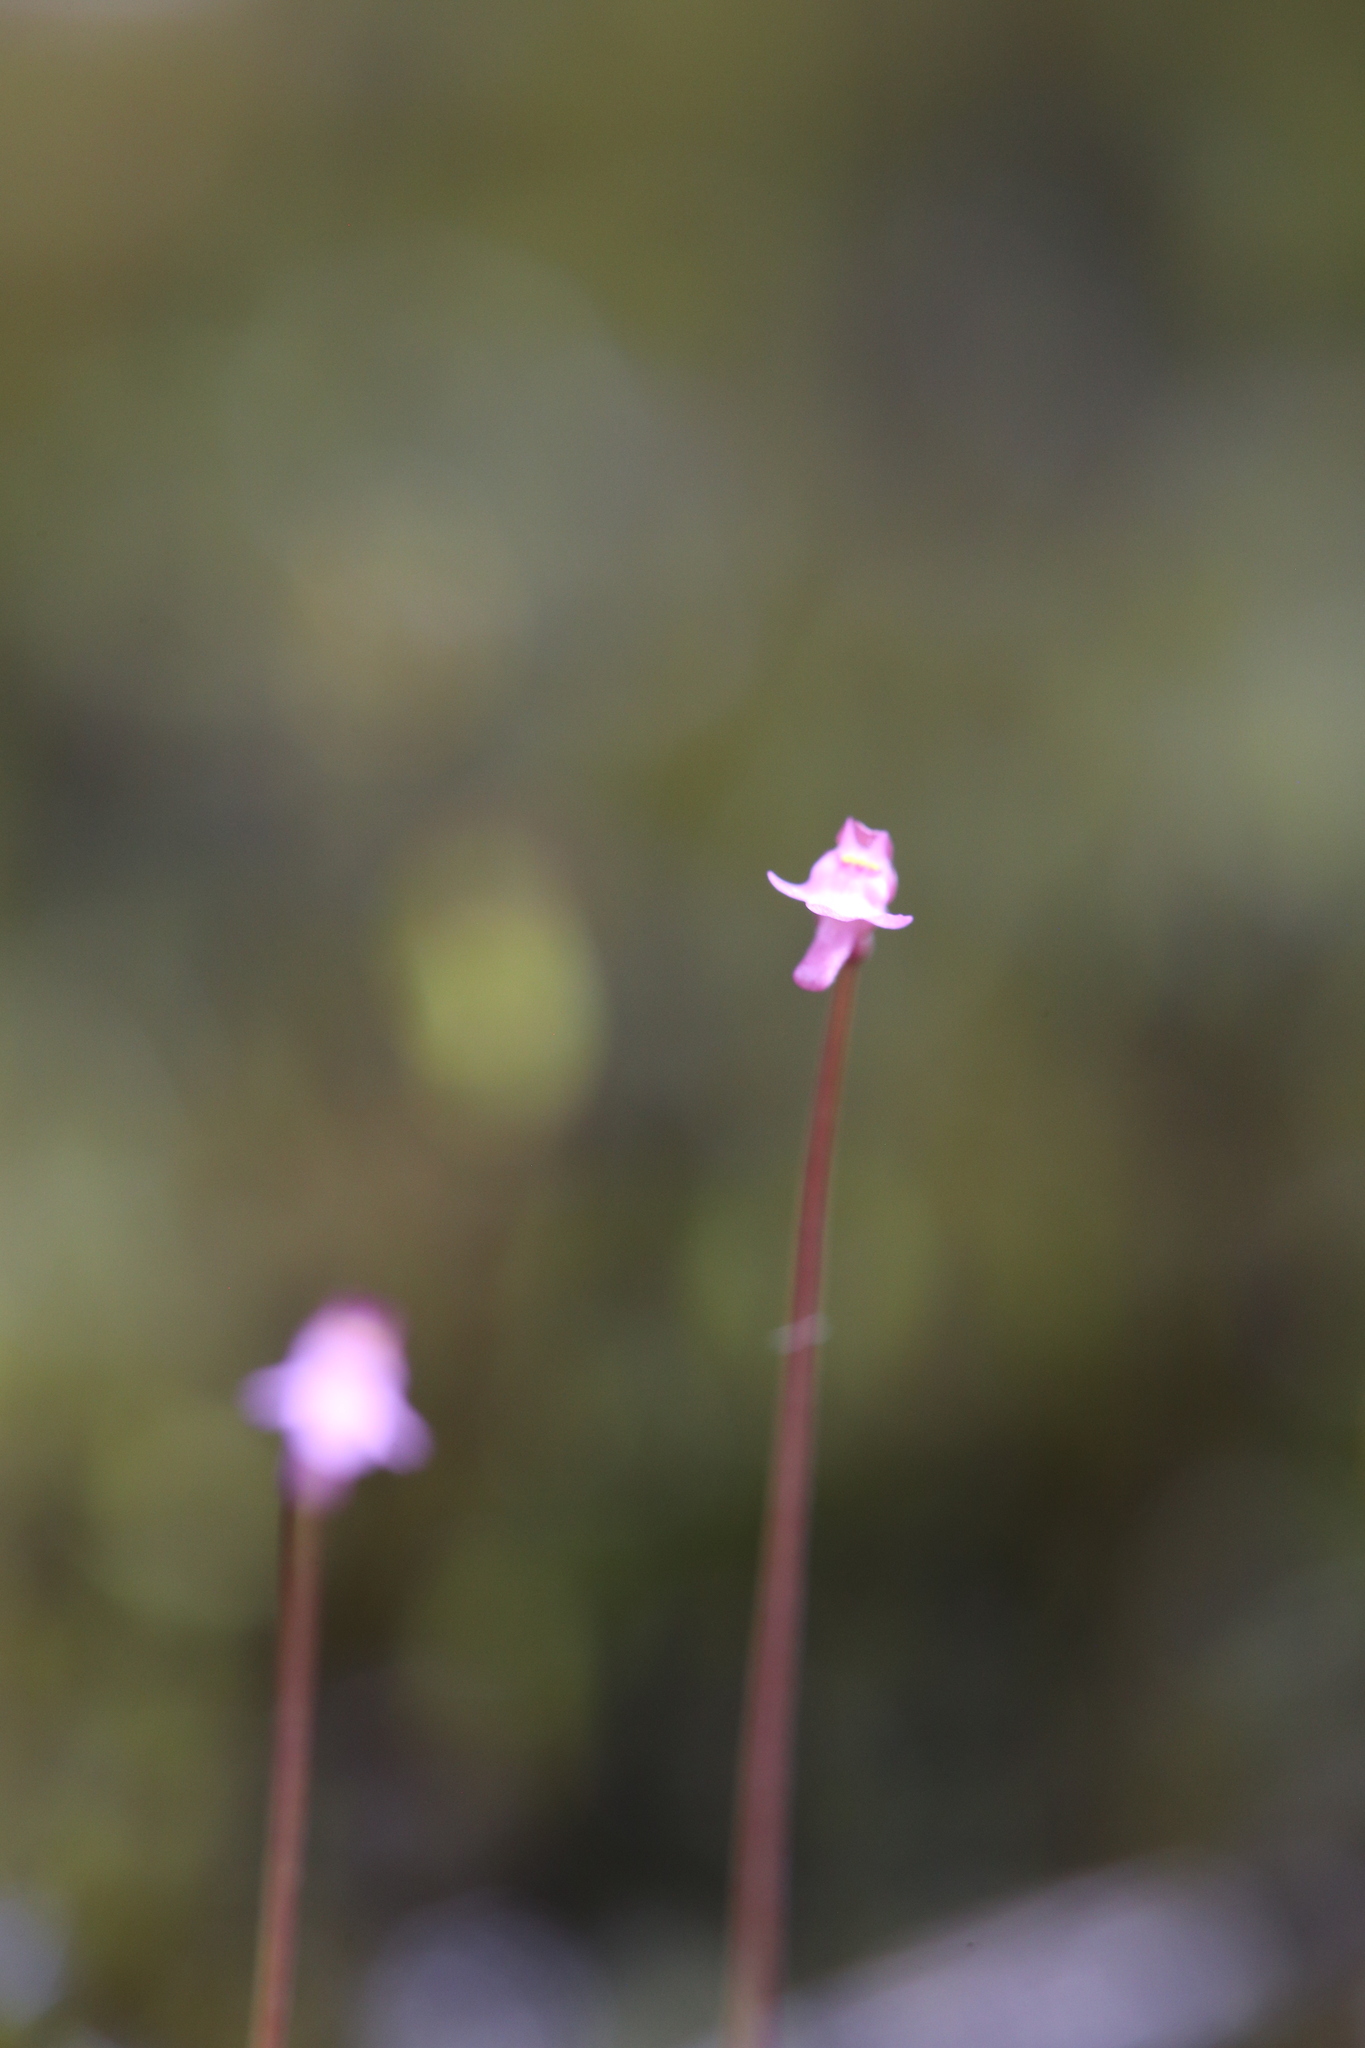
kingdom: Plantae
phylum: Tracheophyta
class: Magnoliopsida
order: Lamiales
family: Lentibulariaceae
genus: Utricularia
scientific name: Utricularia tenella
